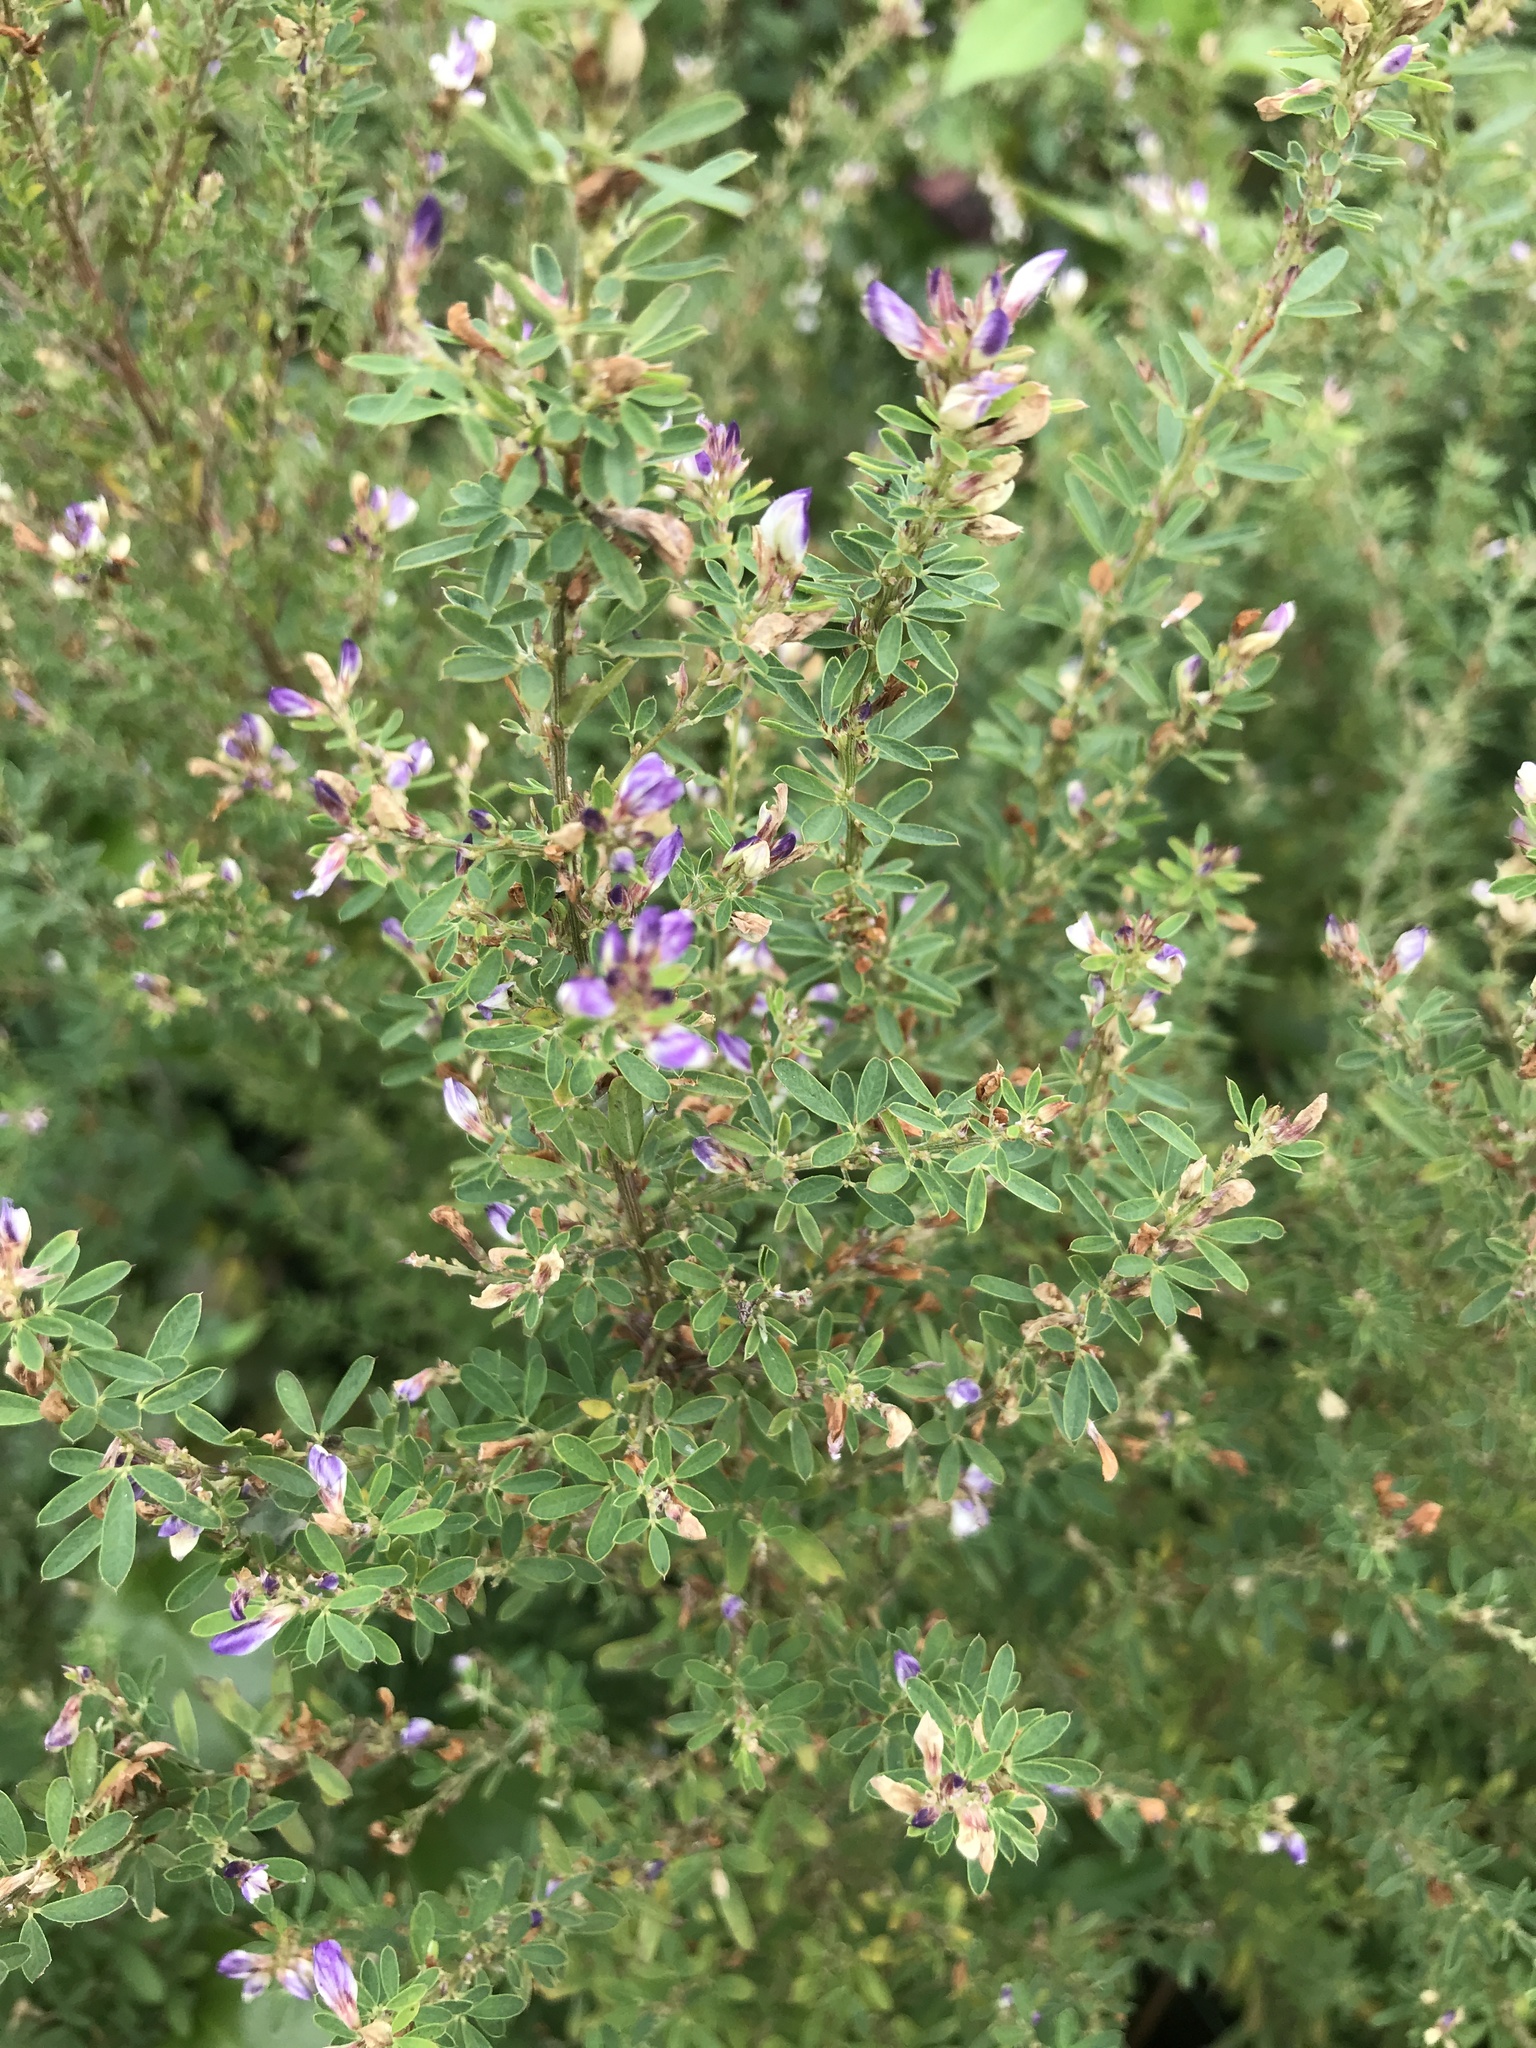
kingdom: Plantae
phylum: Tracheophyta
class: Magnoliopsida
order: Fabales
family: Fabaceae
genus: Lespedeza
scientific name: Lespedeza cuneata
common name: Chinese bush-clover
